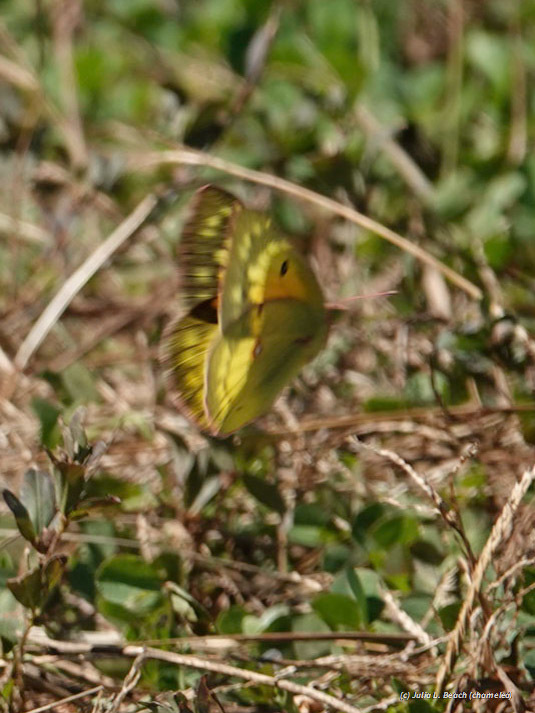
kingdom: Animalia
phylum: Arthropoda
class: Insecta
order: Lepidoptera
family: Pieridae
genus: Colias
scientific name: Colias eurytheme
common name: Alfalfa butterfly
